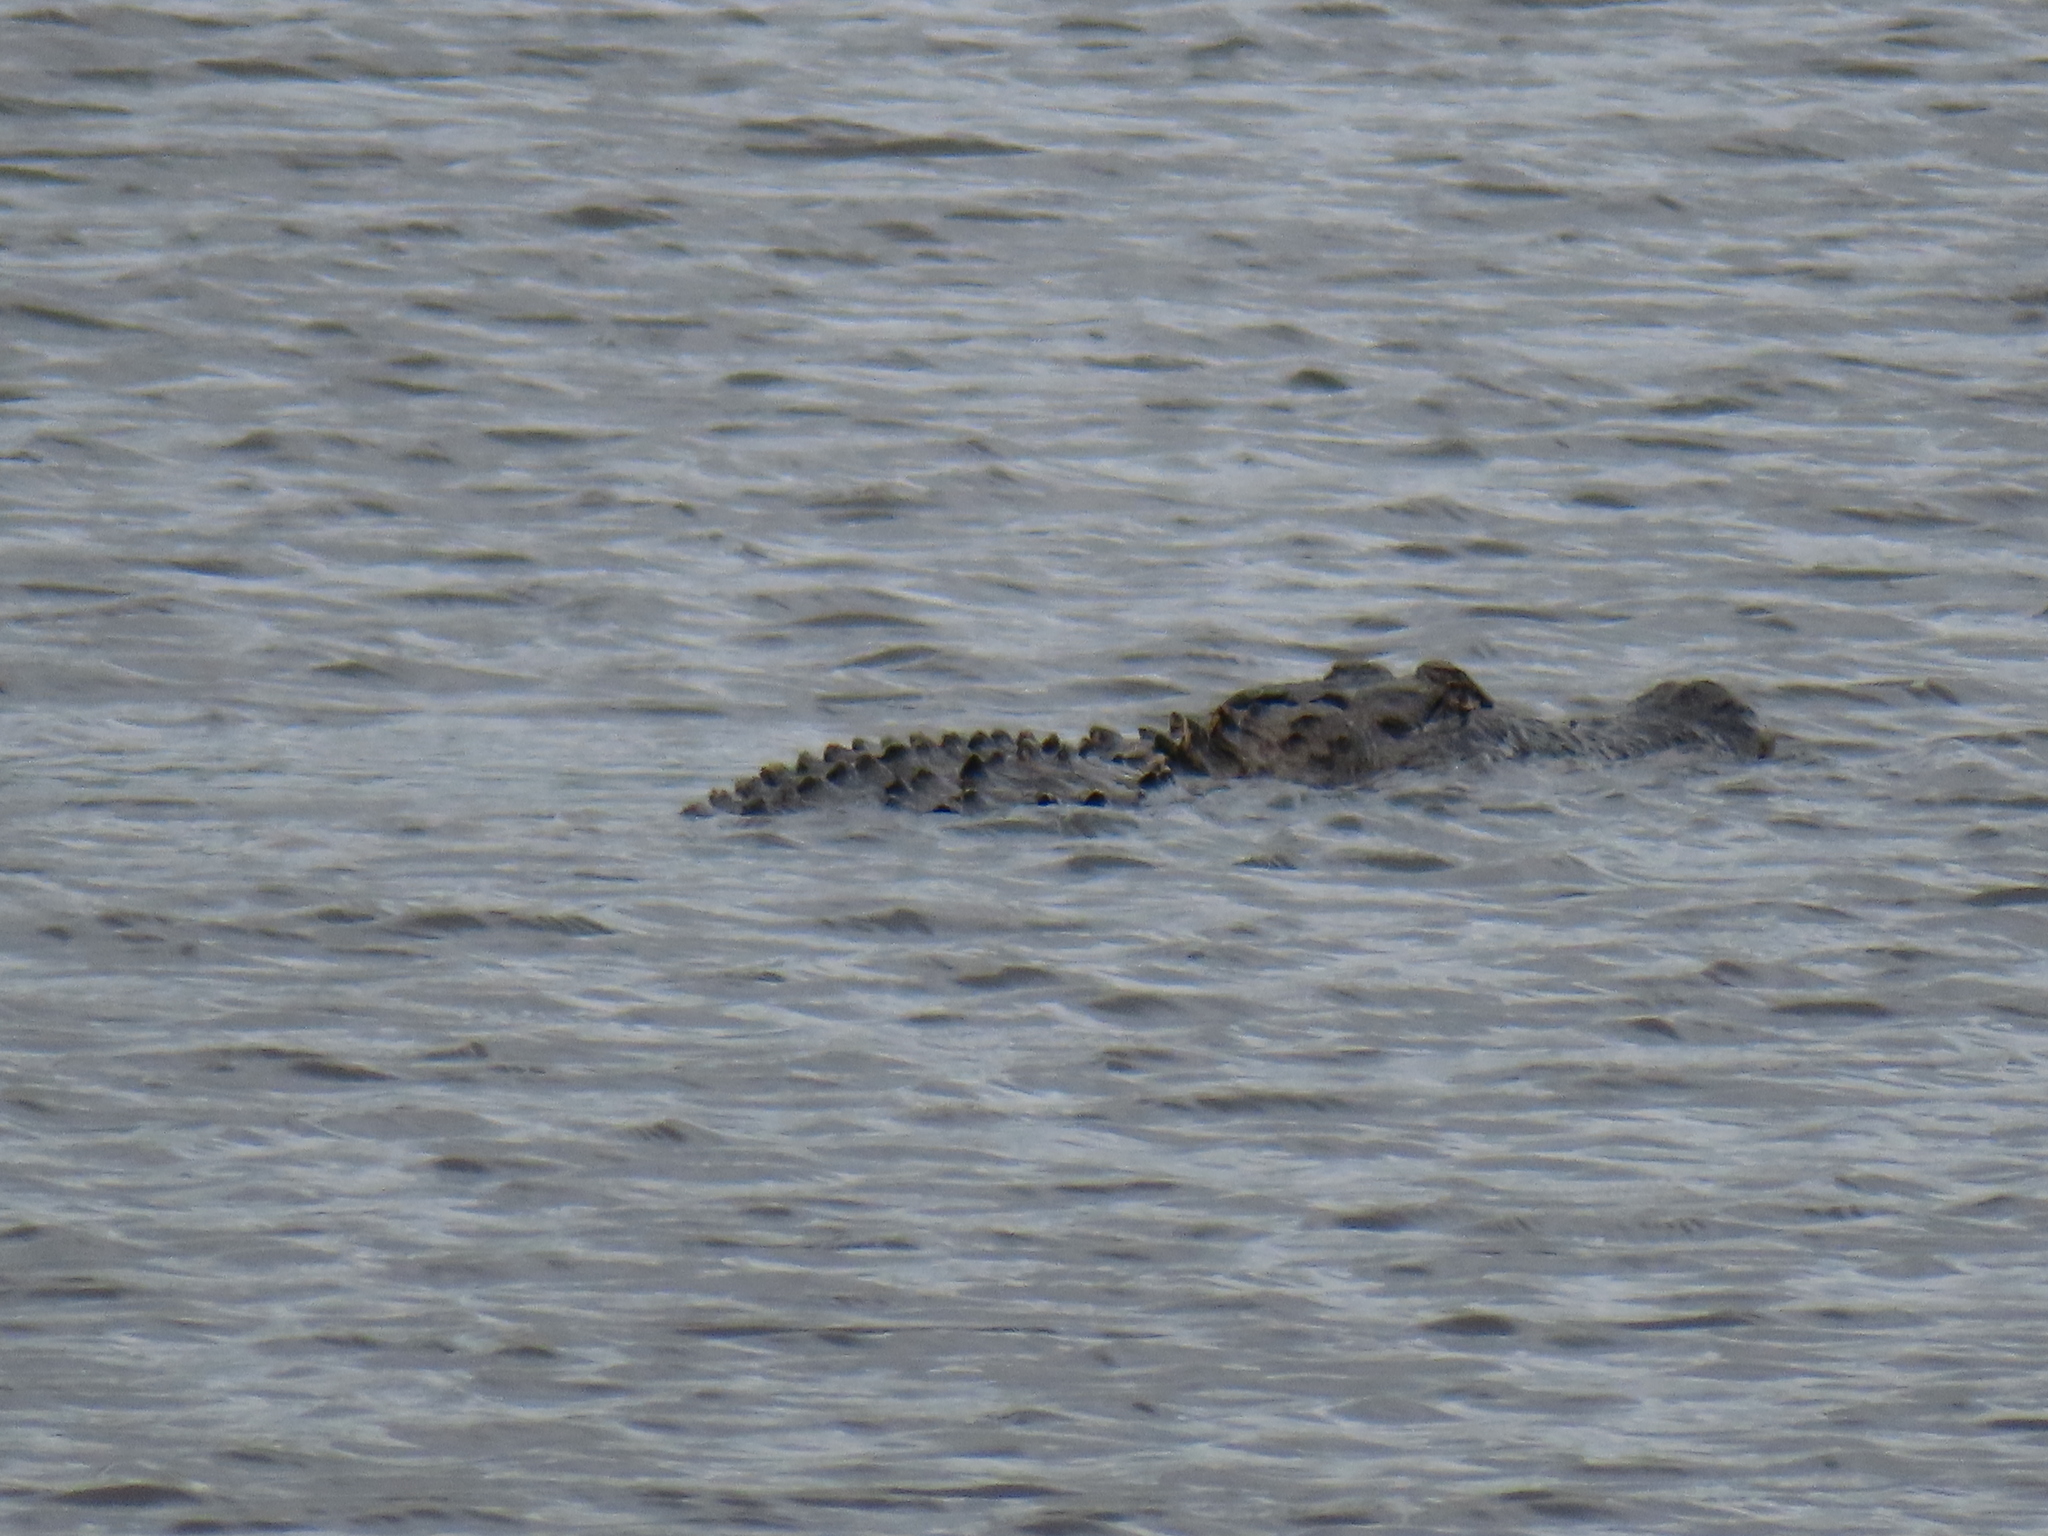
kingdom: Animalia
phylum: Chordata
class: Crocodylia
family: Alligatoridae
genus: Alligator
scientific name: Alligator mississippiensis
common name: American alligator
